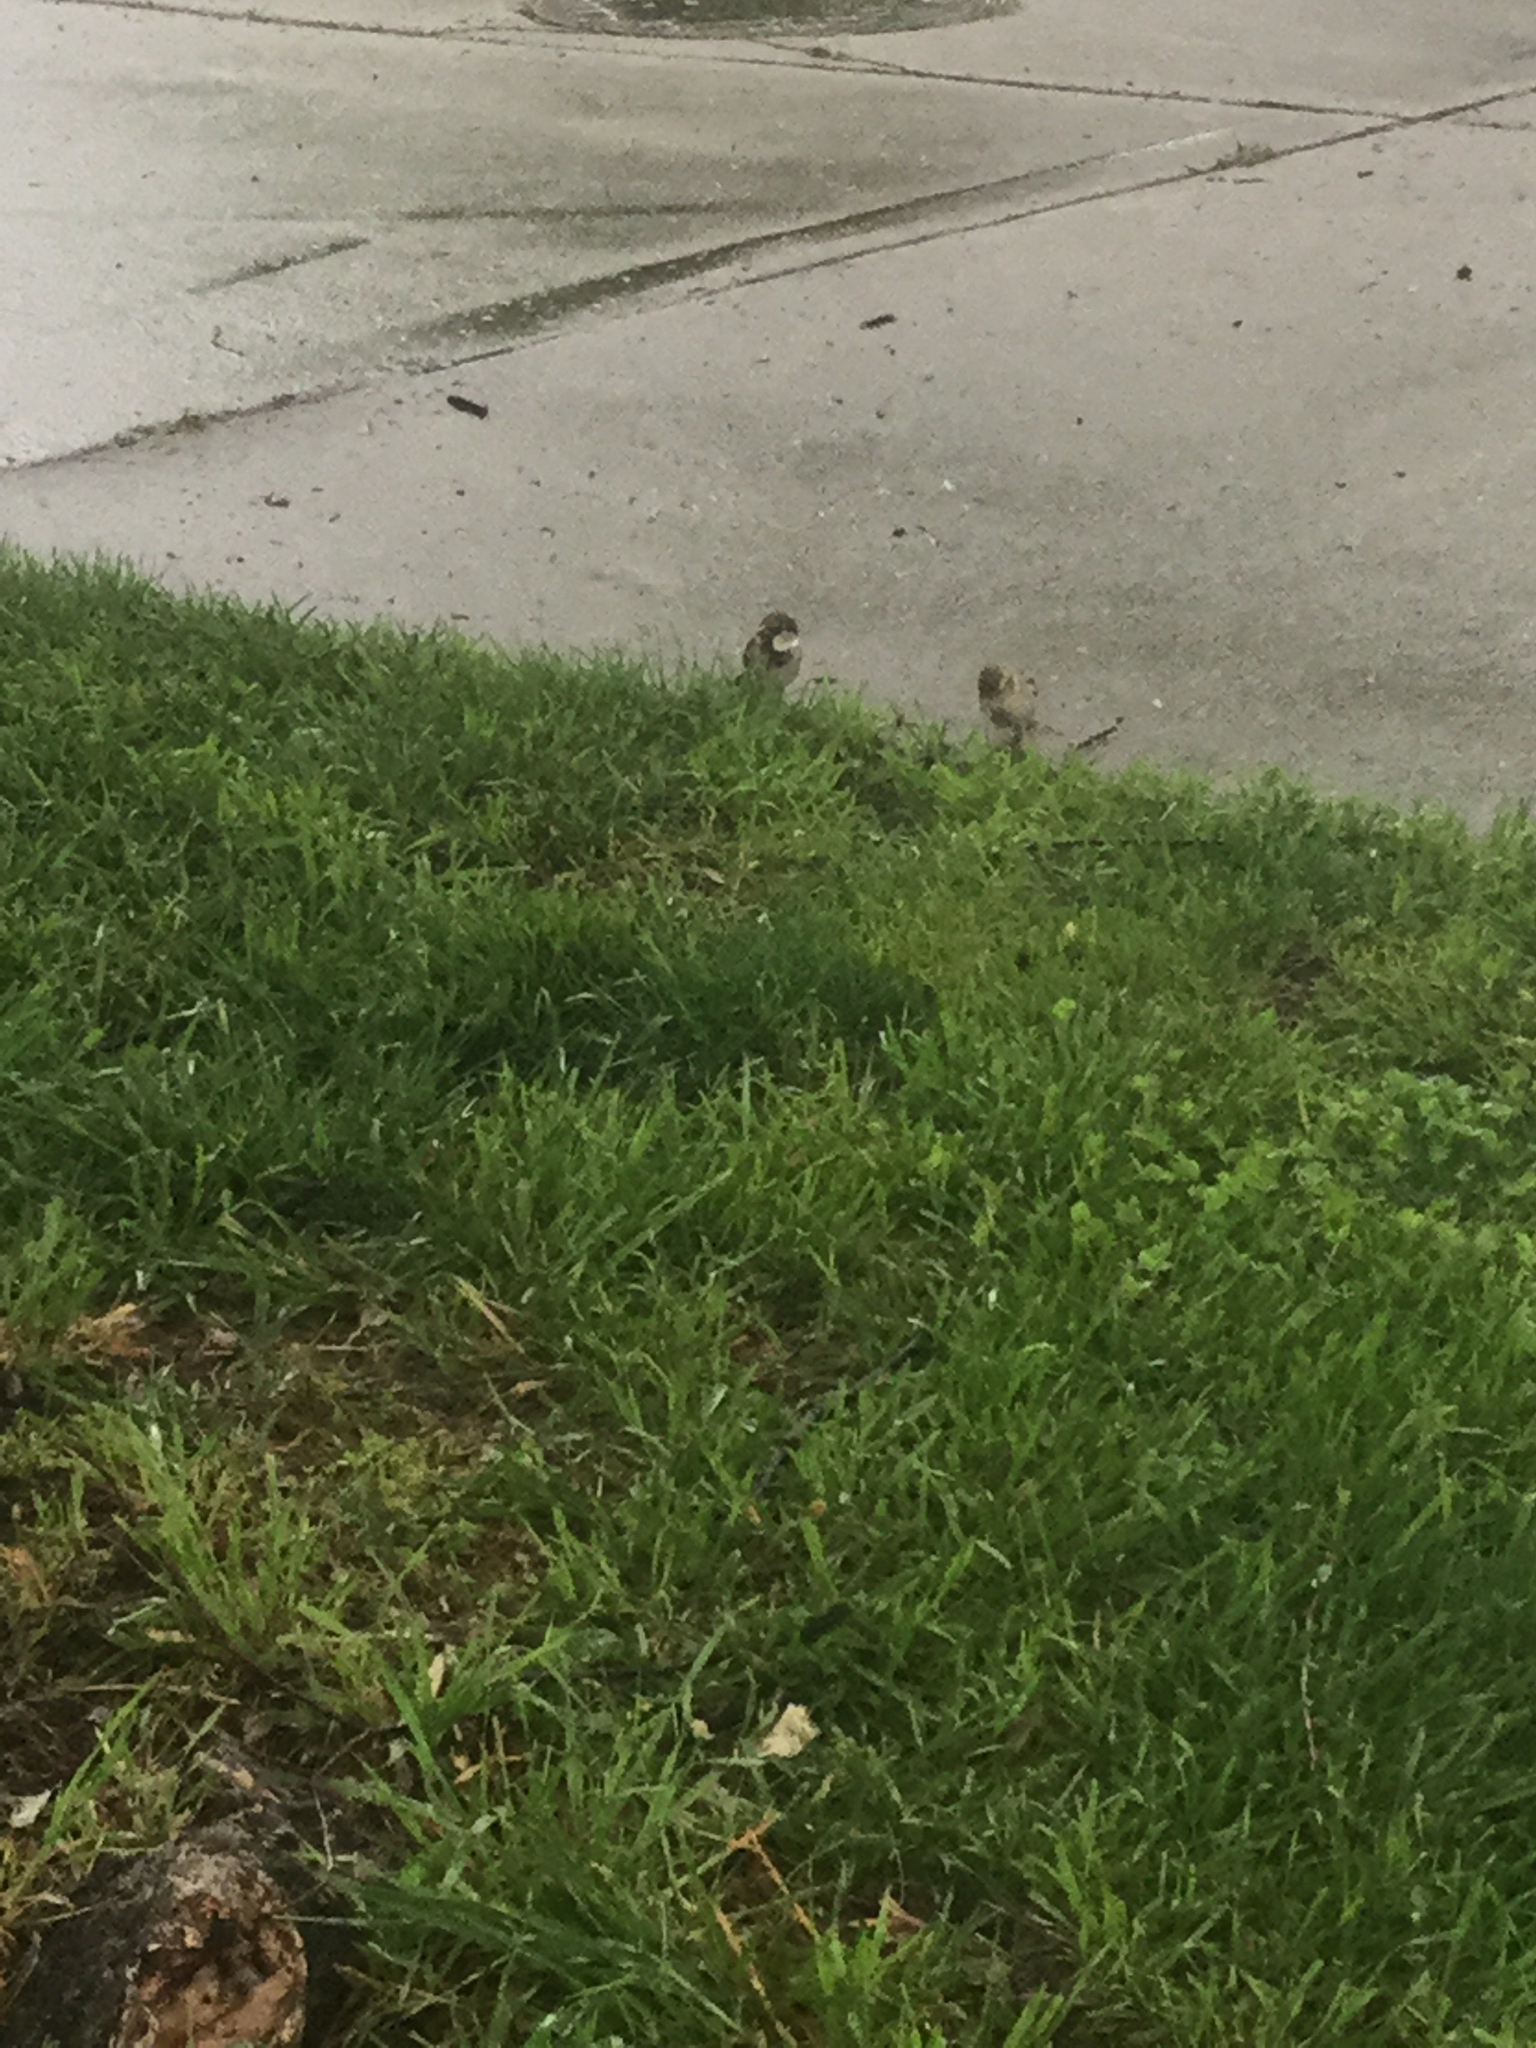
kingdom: Animalia
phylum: Chordata
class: Aves
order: Passeriformes
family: Passeridae
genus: Passer
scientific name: Passer domesticus
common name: House sparrow
